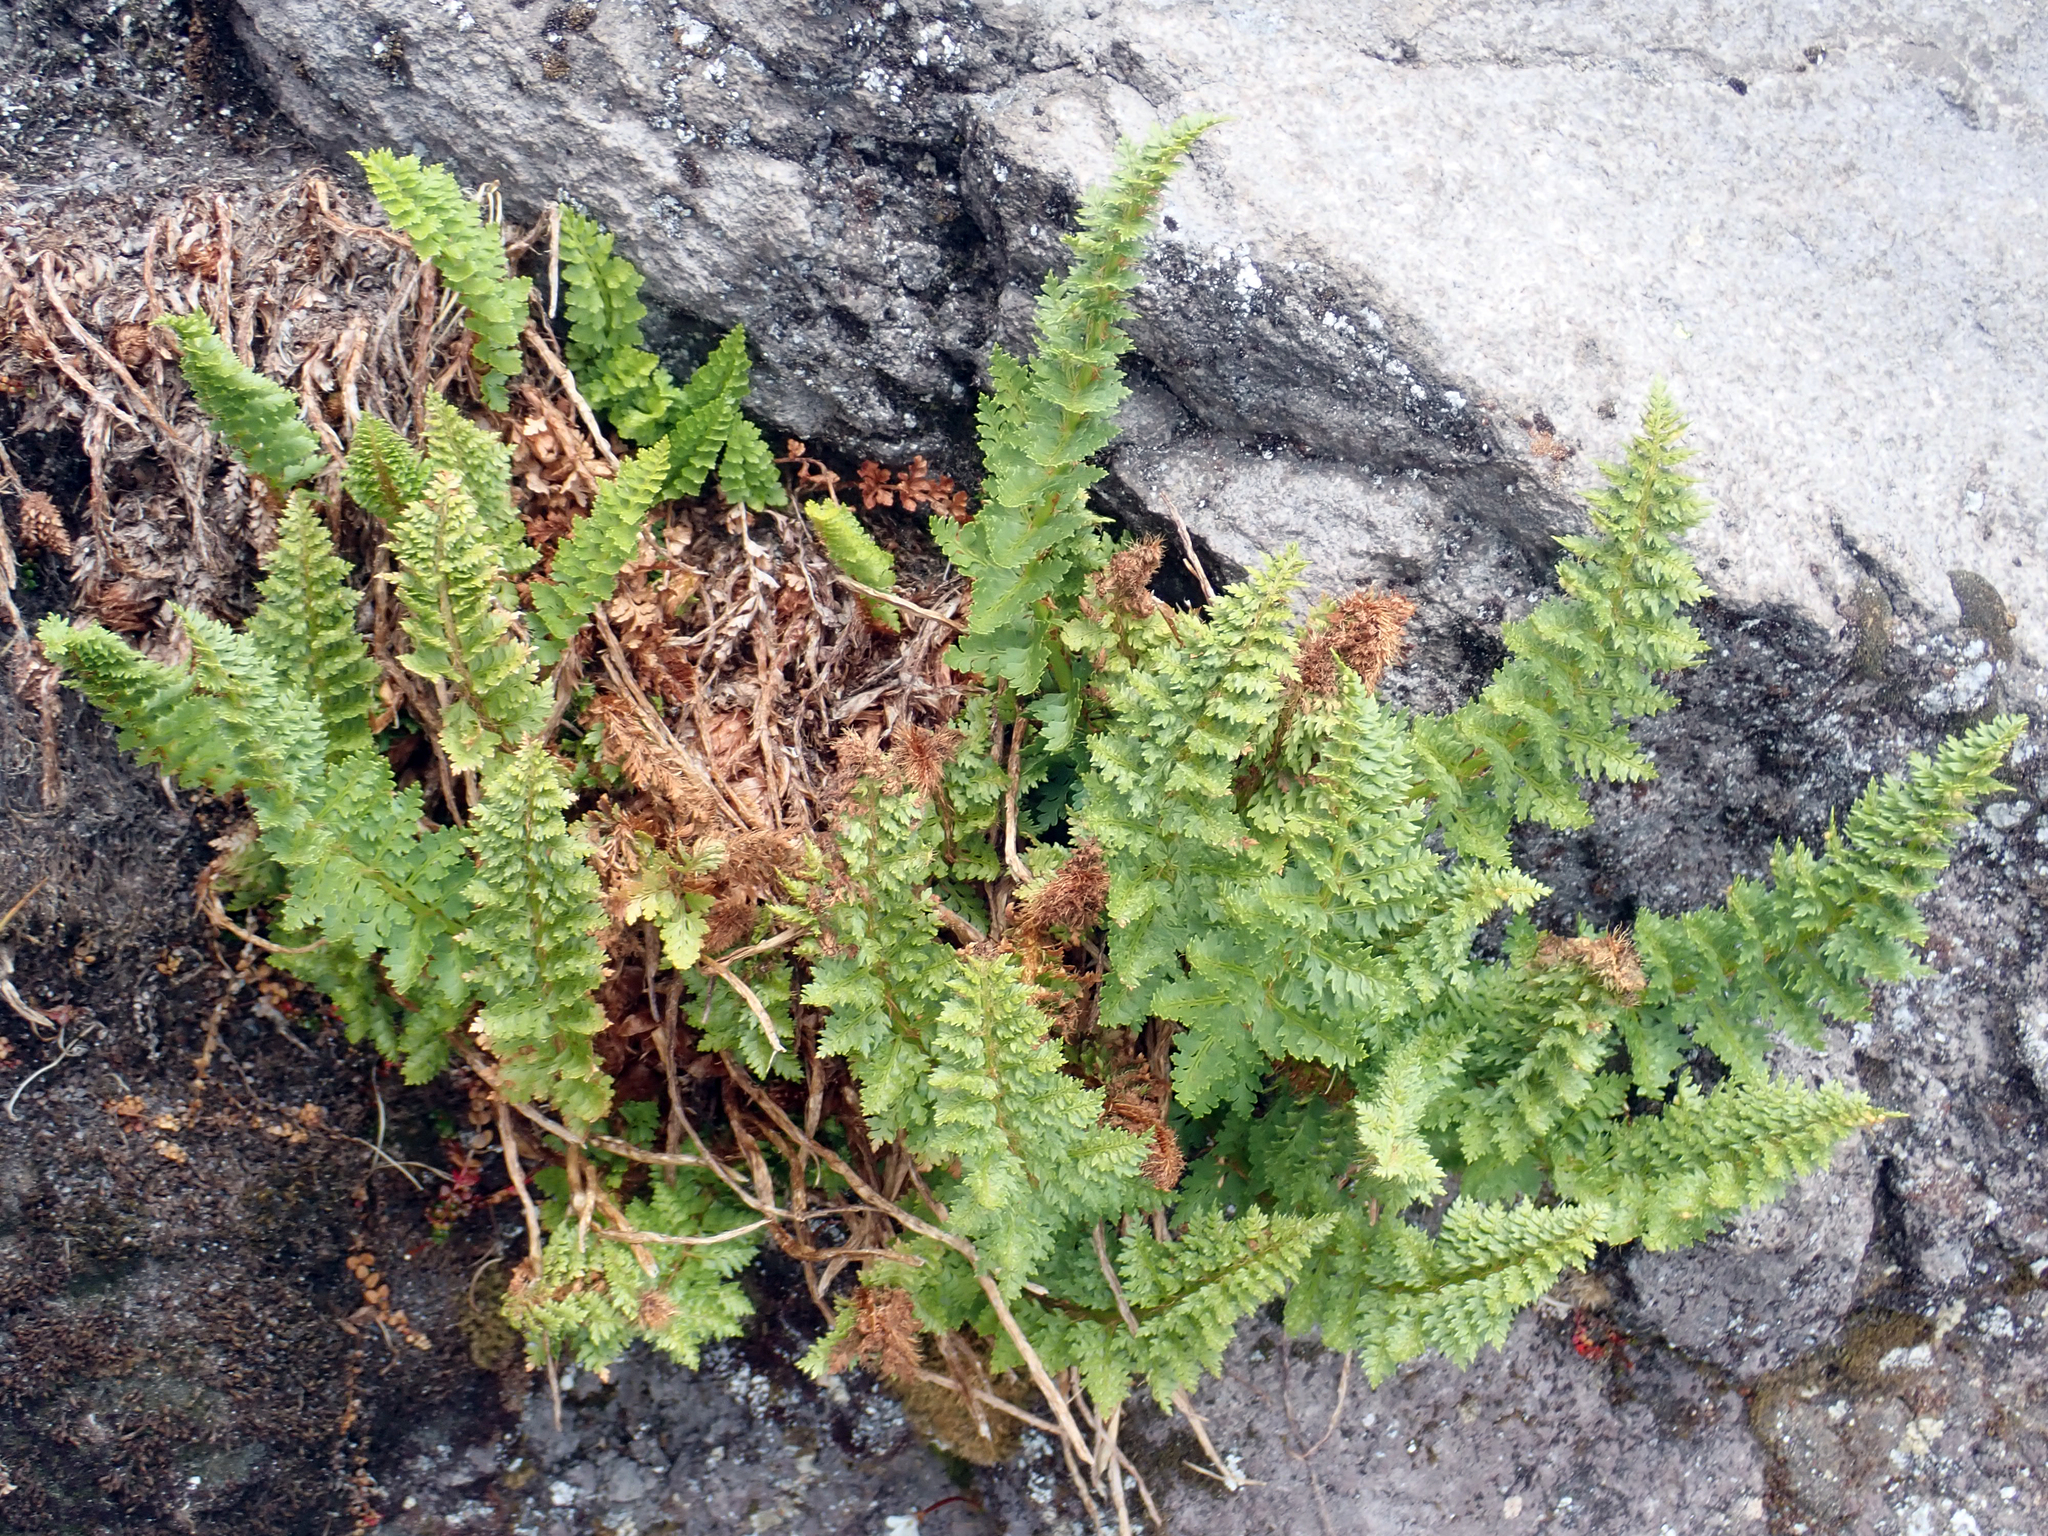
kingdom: Plantae
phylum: Tracheophyta
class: Polypodiopsida
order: Polypodiales
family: Dryopteridaceae
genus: Polystichum
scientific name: Polystichum cystostegia
